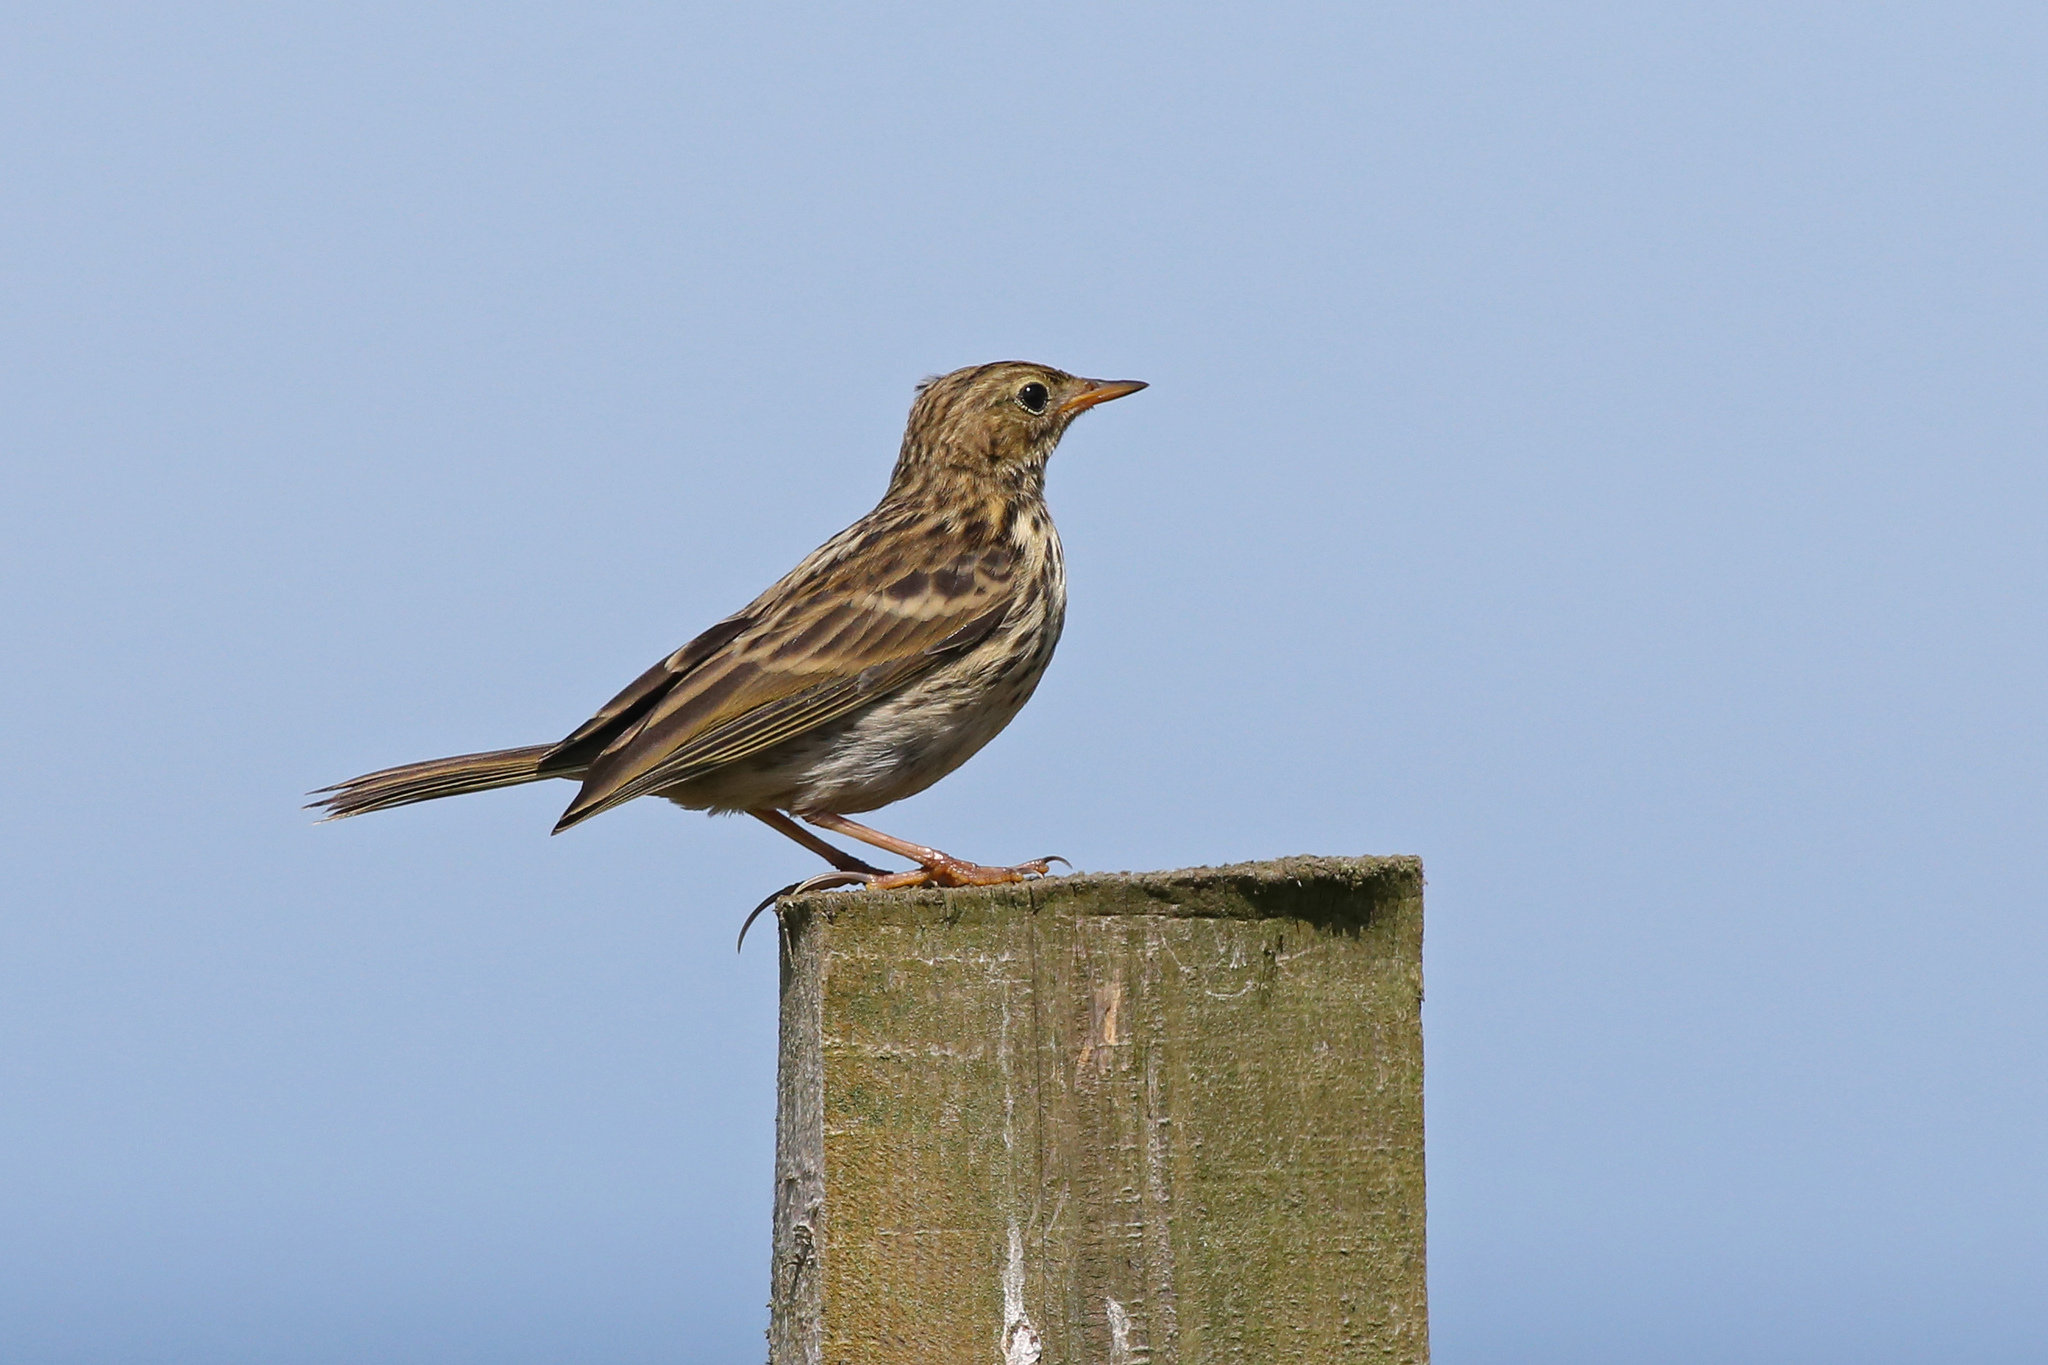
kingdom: Animalia
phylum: Chordata
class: Aves
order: Passeriformes
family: Motacillidae
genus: Anthus
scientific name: Anthus pratensis
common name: Meadow pipit
